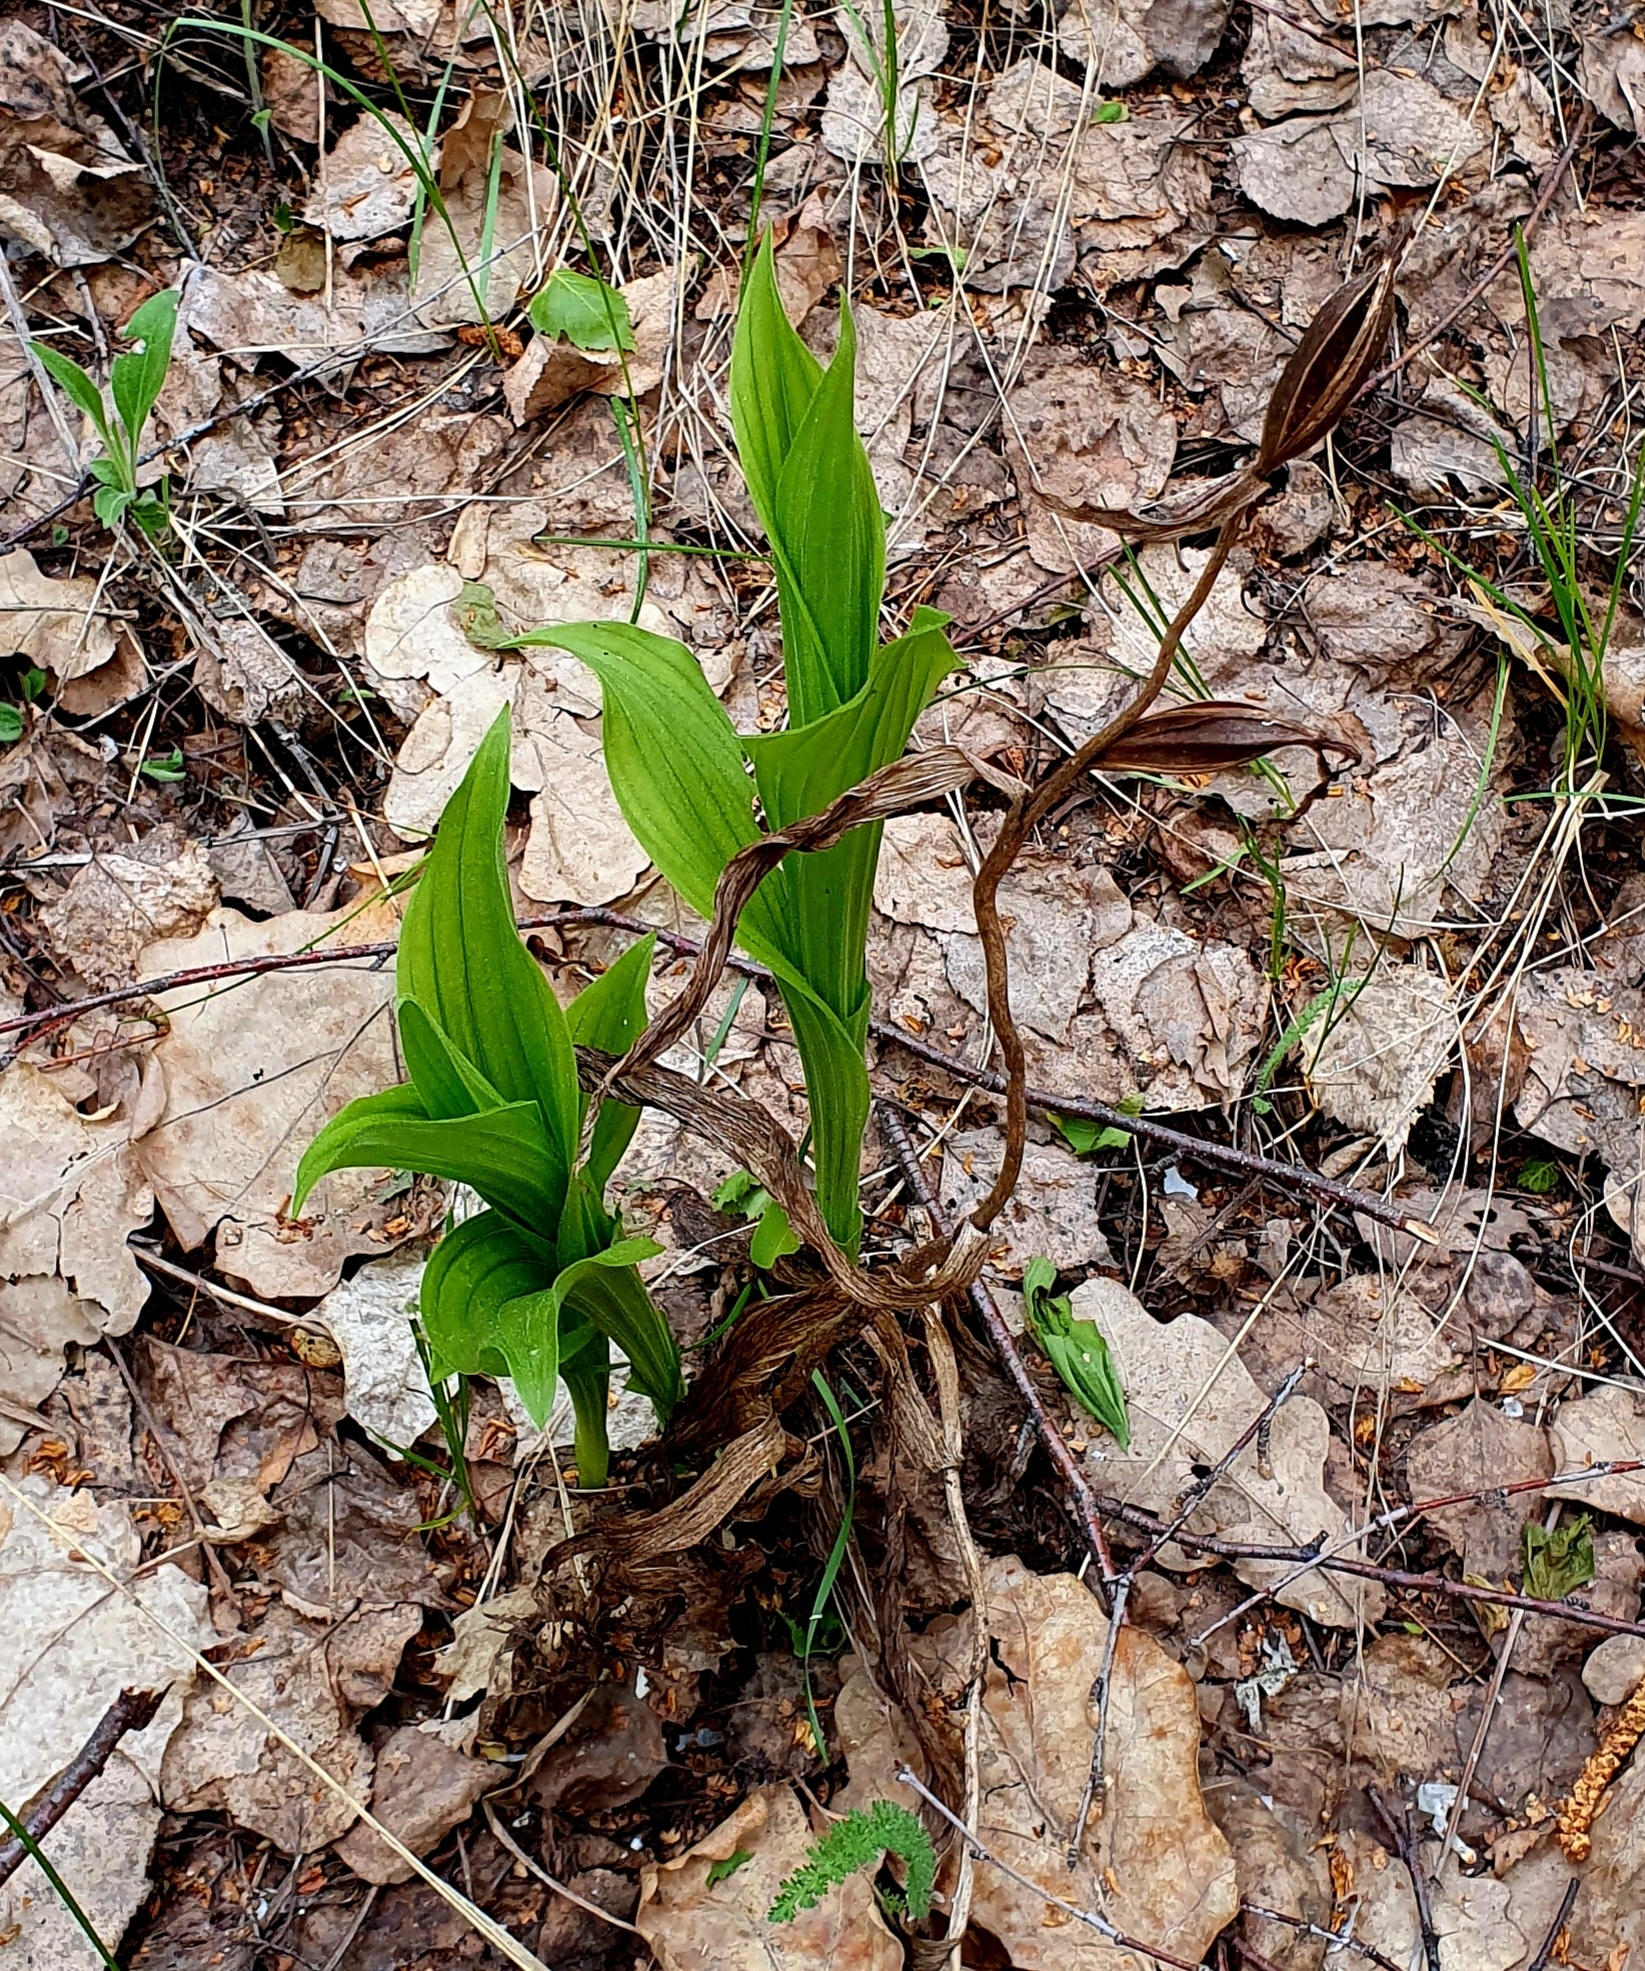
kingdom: Plantae
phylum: Tracheophyta
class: Liliopsida
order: Asparagales
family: Orchidaceae
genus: Cypripedium
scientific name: Cypripedium calceolus
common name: Lady's-slipper
